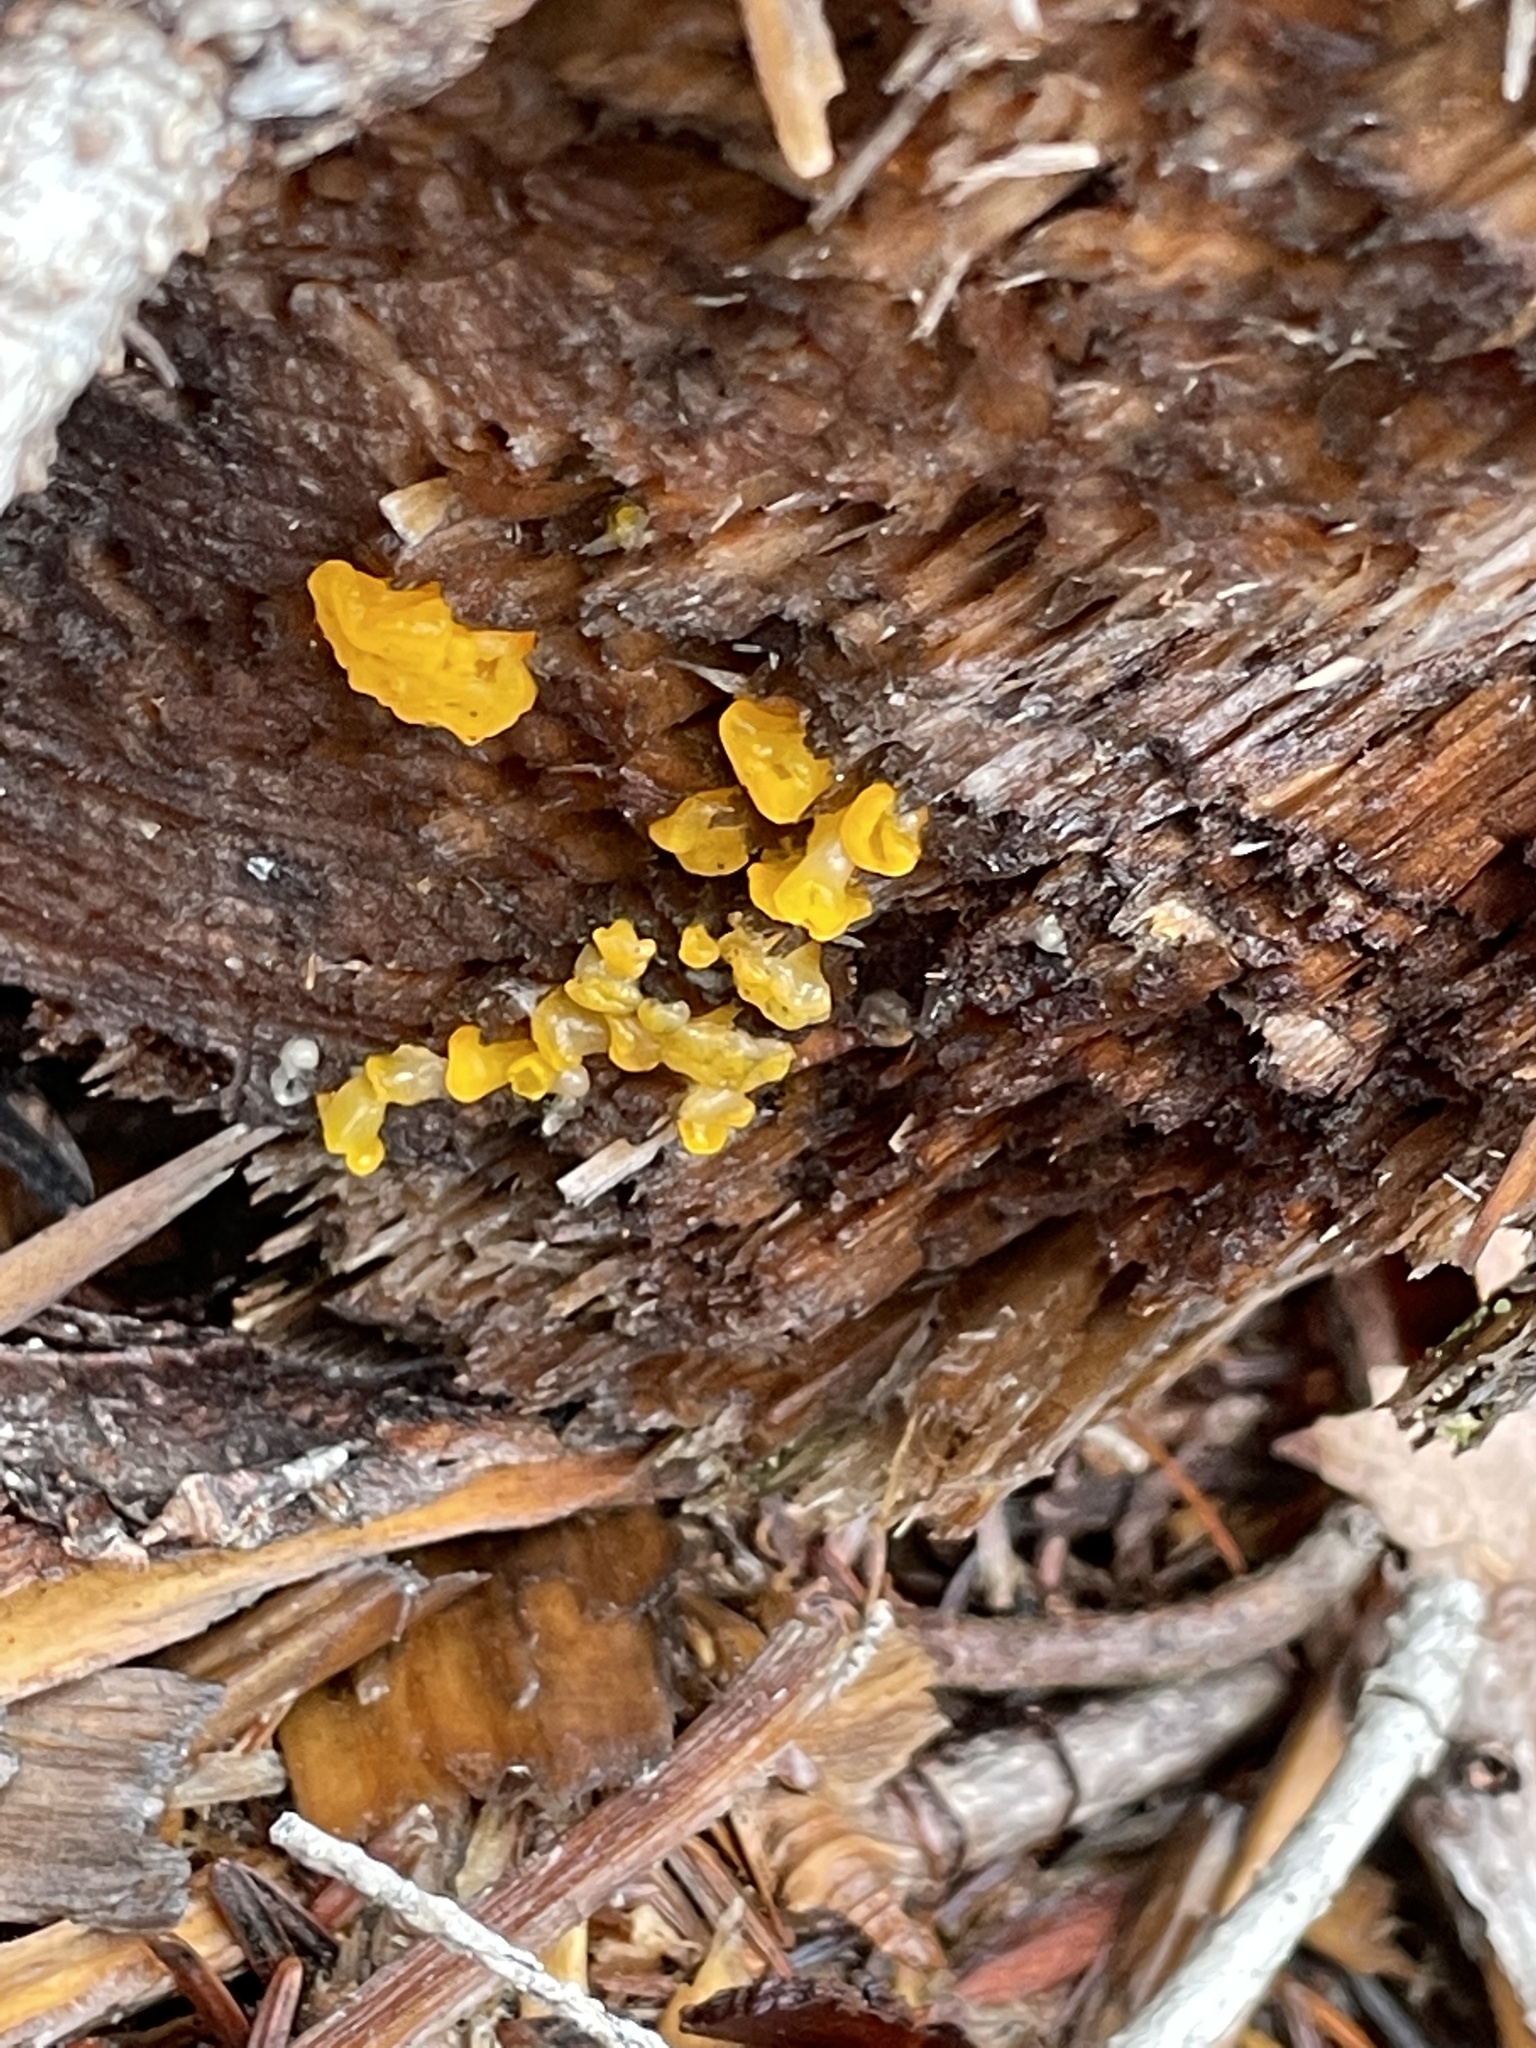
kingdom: Fungi
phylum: Basidiomycota
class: Dacrymycetes
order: Dacrymycetales
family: Dacrymycetaceae
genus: Dacrymyces
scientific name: Dacrymyces chrysospermus
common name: Orange jelly spot
